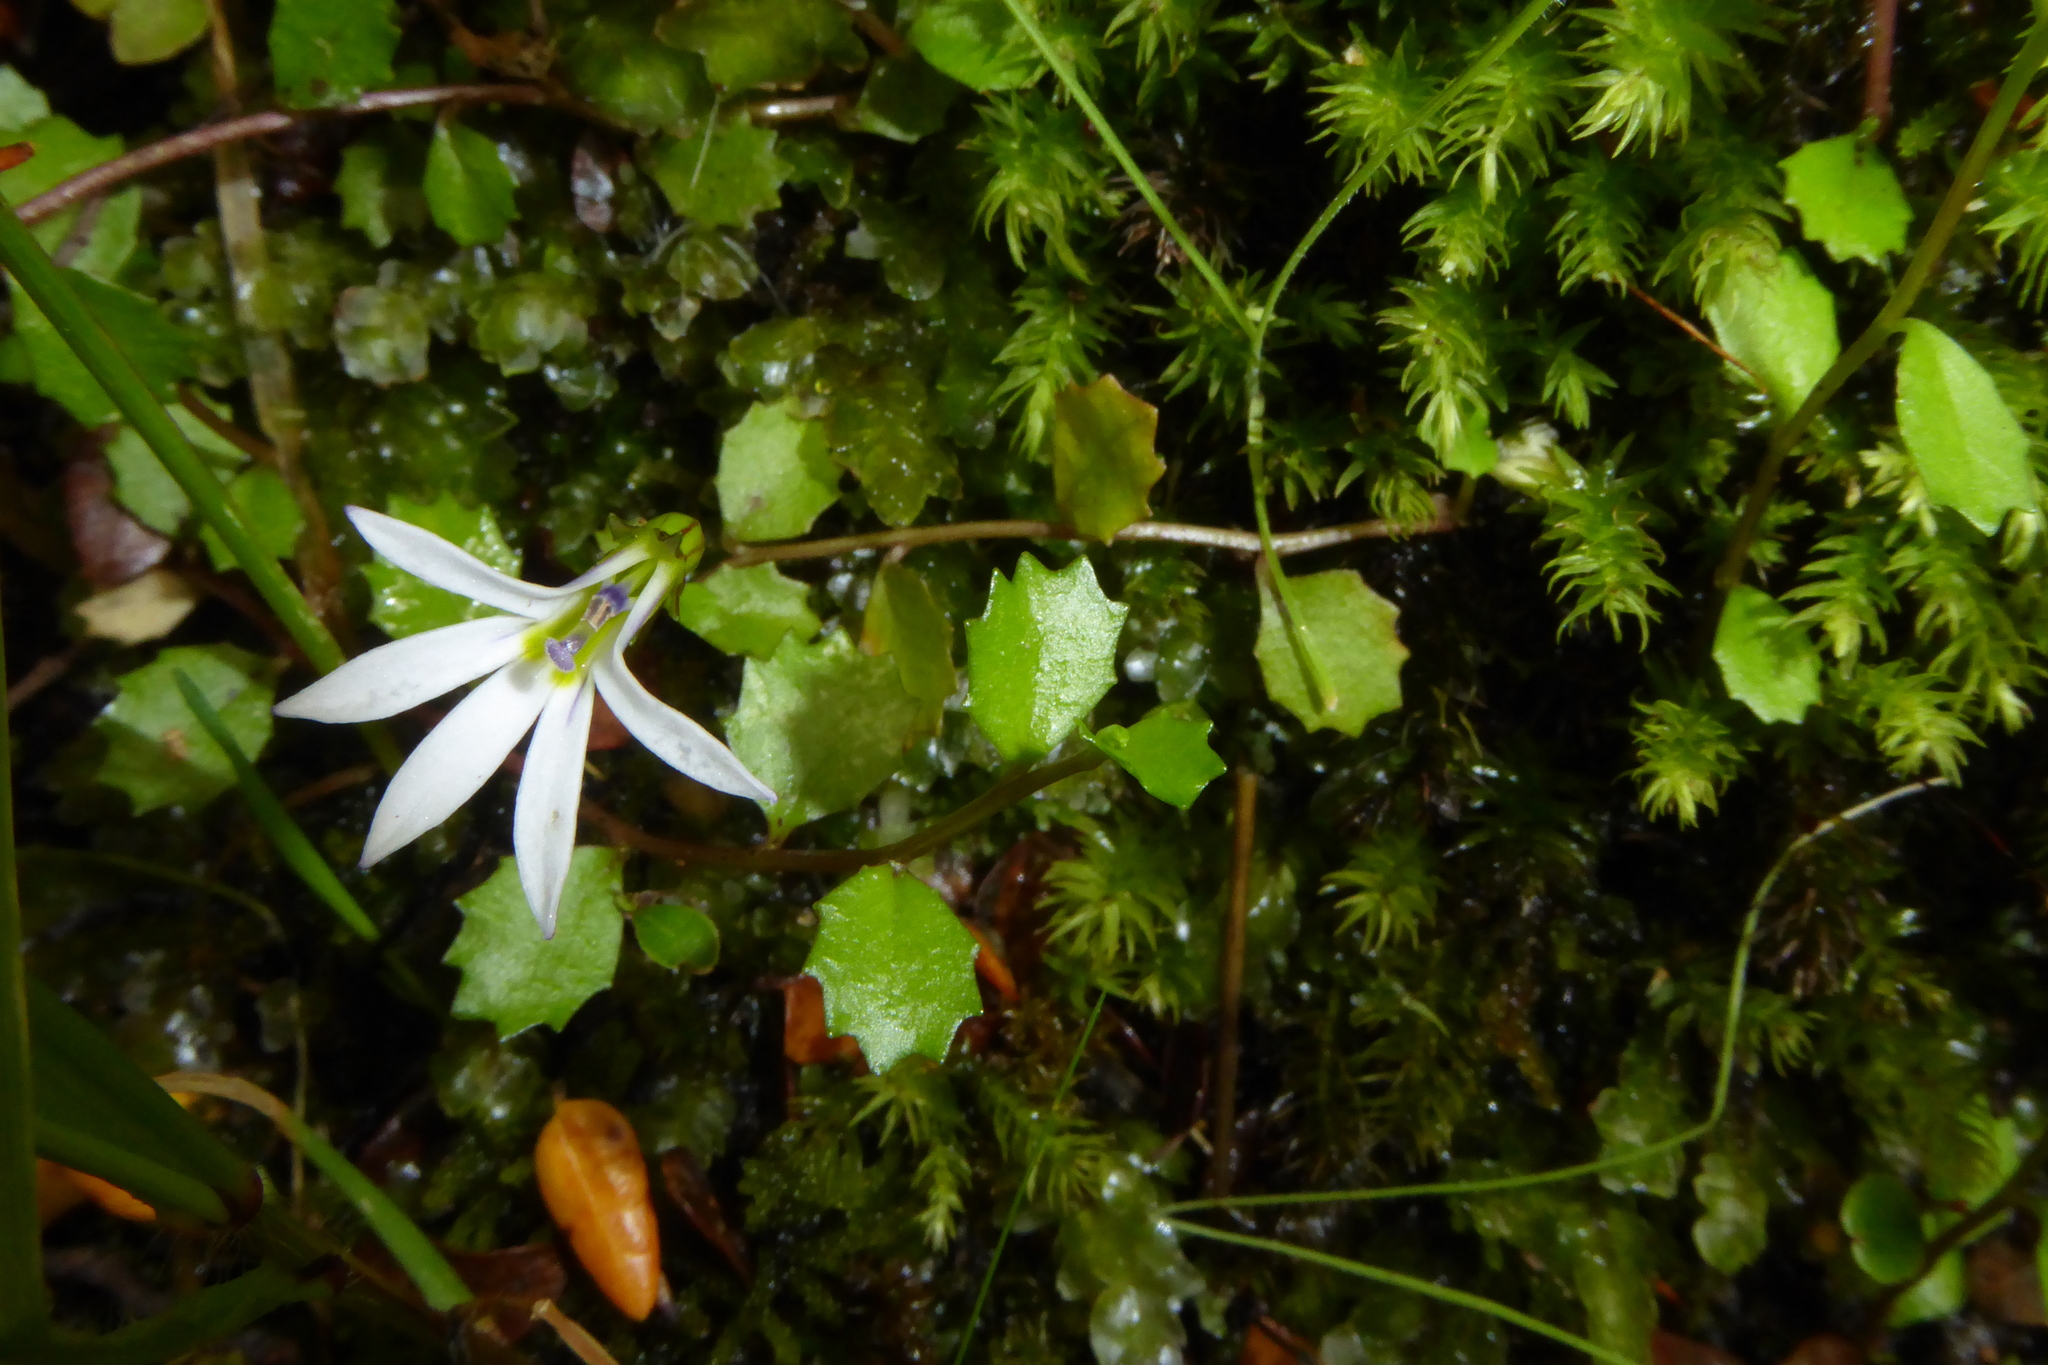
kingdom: Plantae
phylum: Tracheophyta
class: Magnoliopsida
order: Asterales
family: Campanulaceae
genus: Lobelia
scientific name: Lobelia angulata
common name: Lawn lobelia
